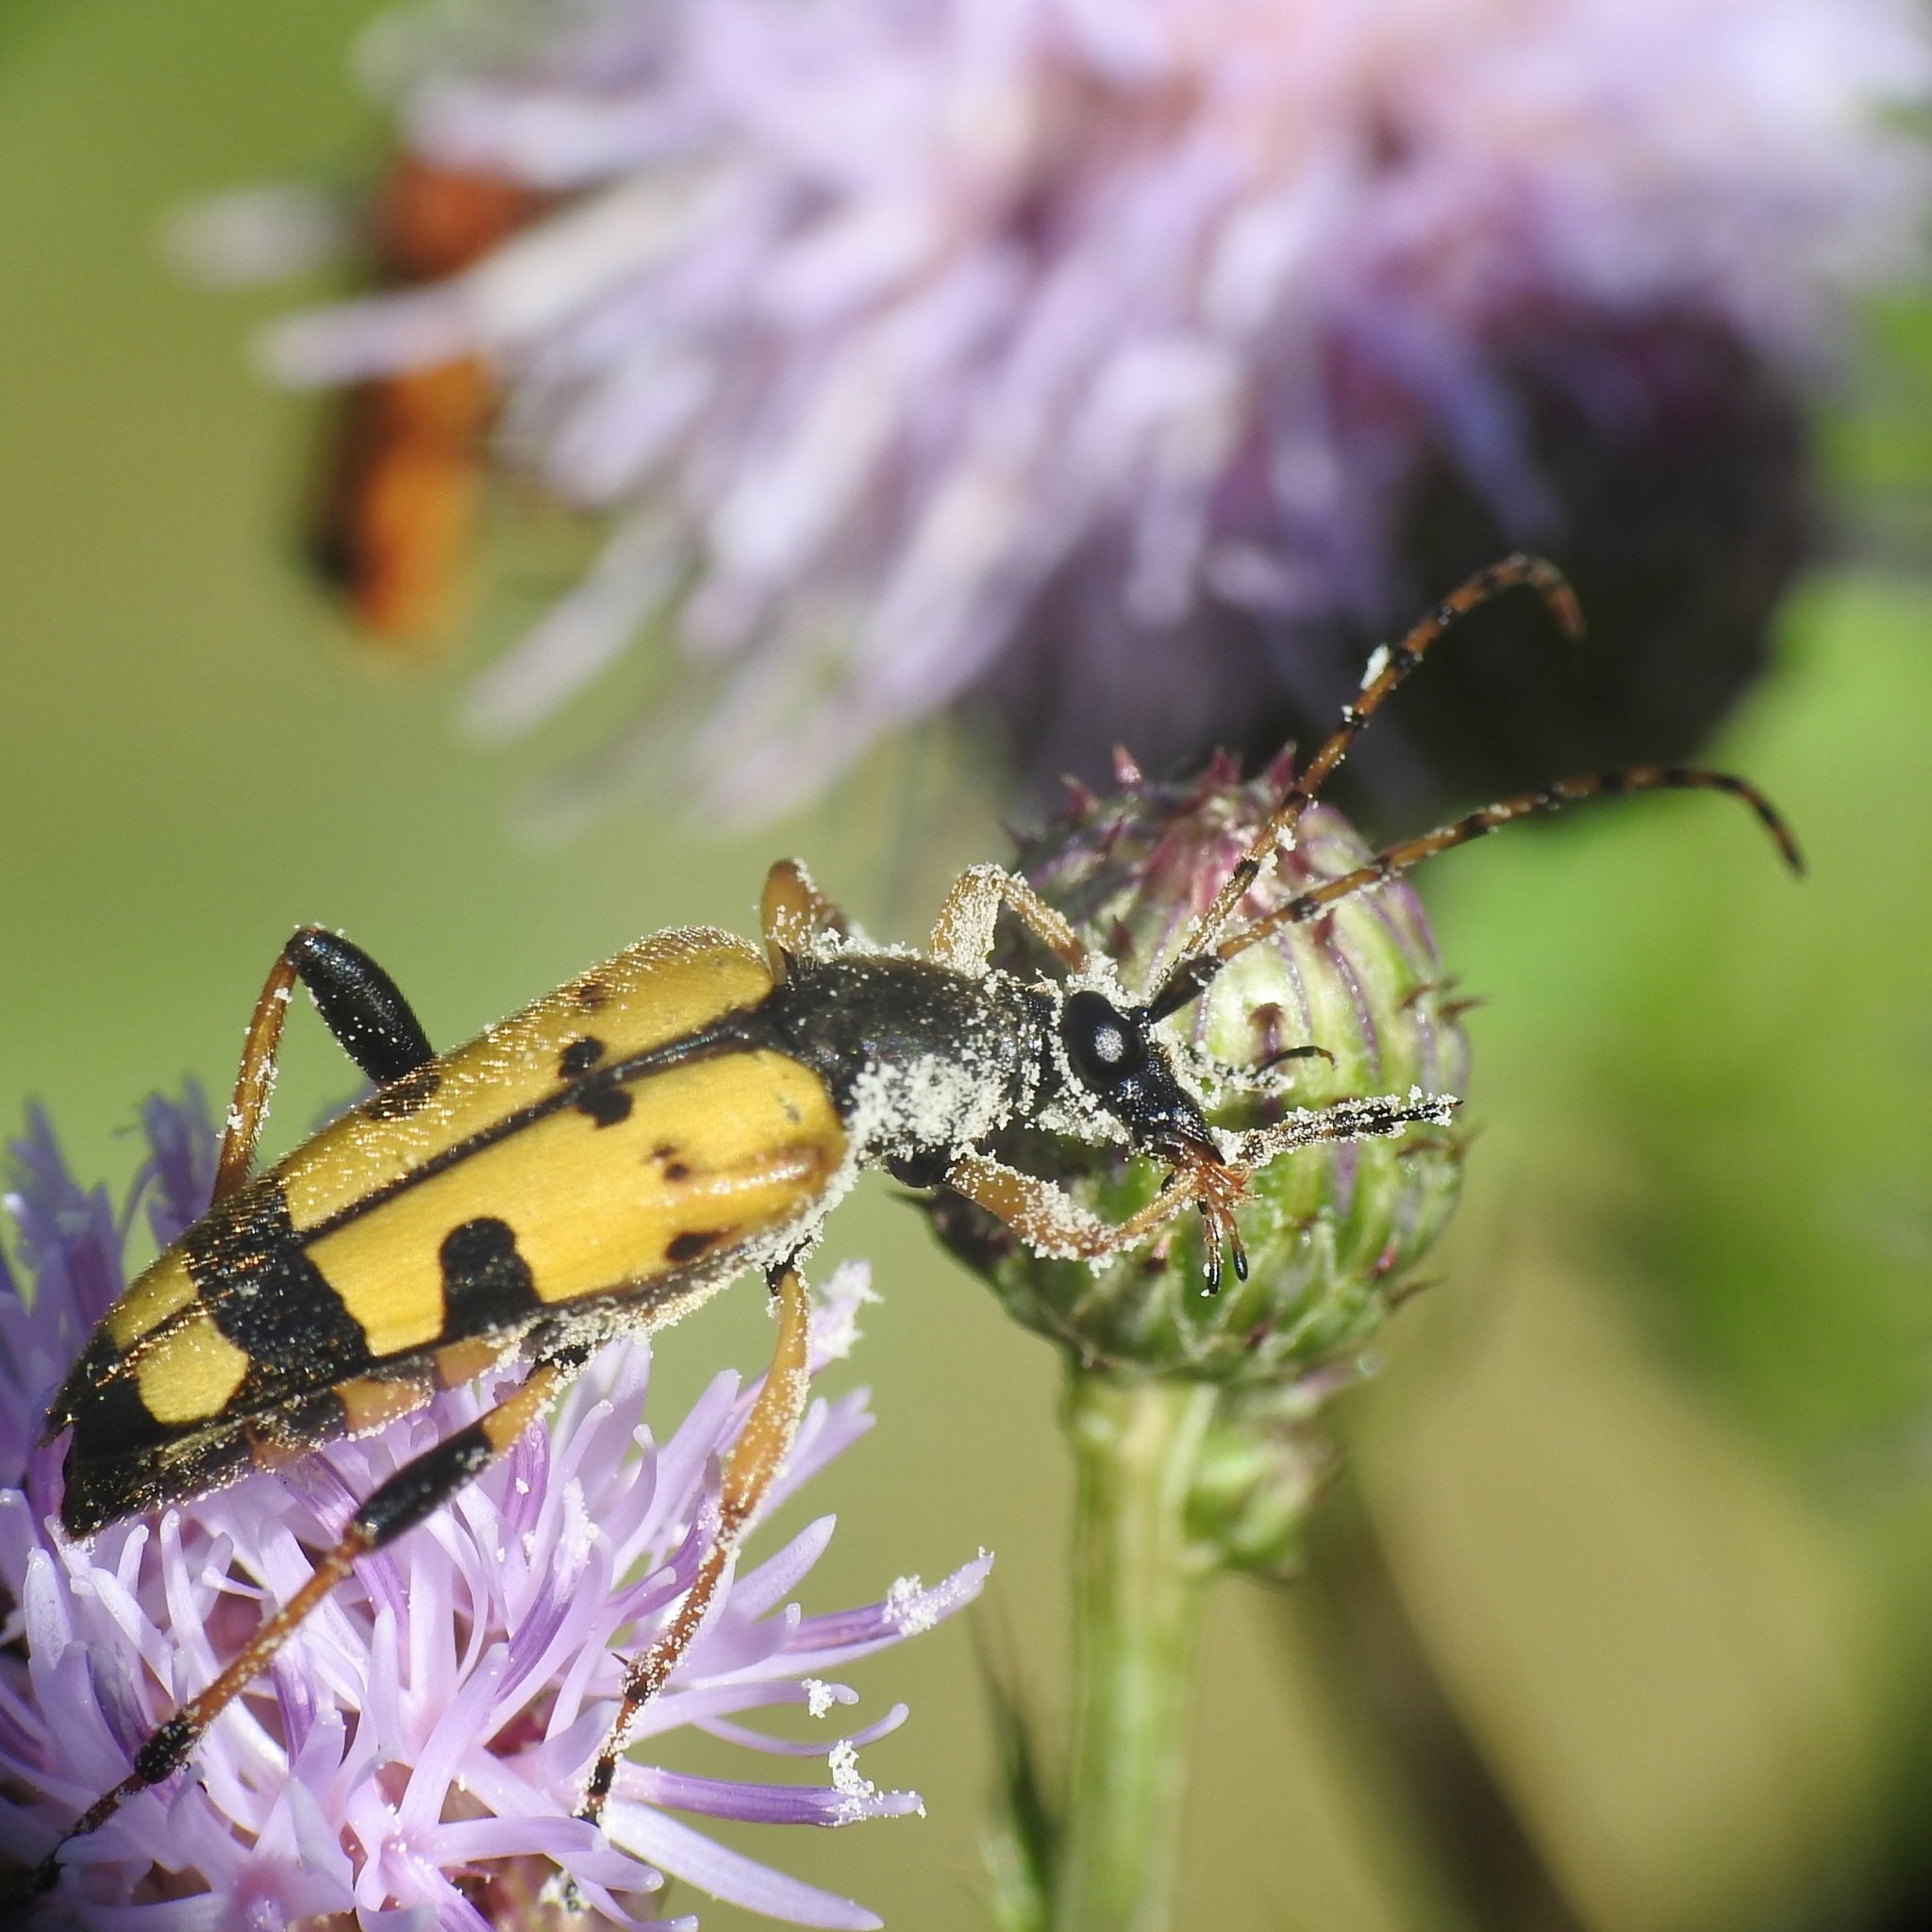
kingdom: Animalia
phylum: Arthropoda
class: Insecta
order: Coleoptera
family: Cerambycidae
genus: Rutpela
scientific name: Rutpela maculata
